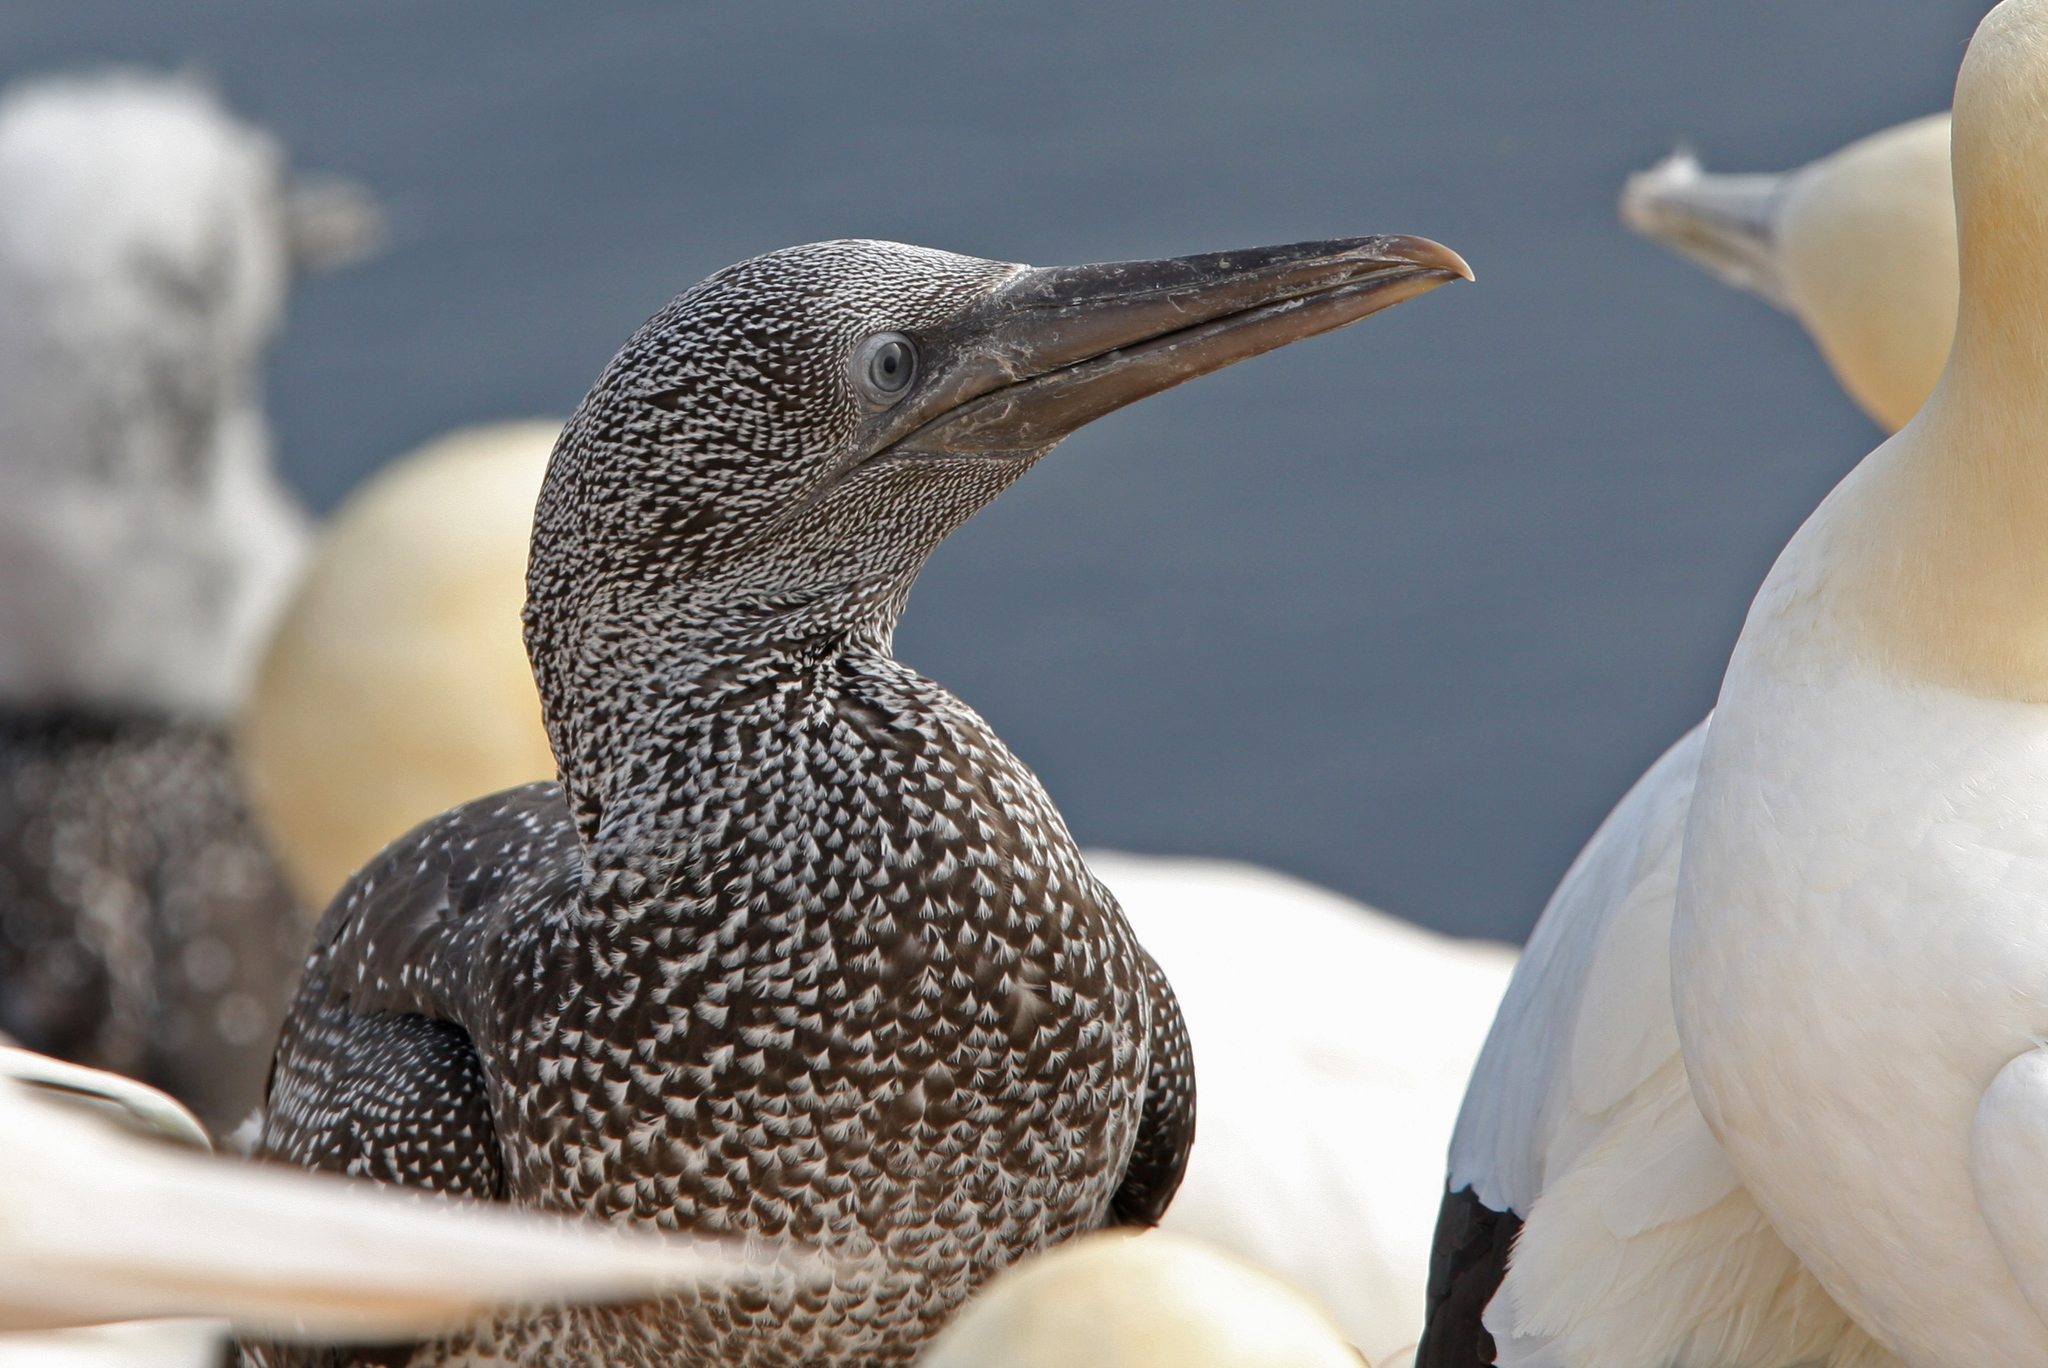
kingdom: Animalia
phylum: Chordata
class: Aves
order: Suliformes
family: Sulidae
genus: Morus
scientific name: Morus bassanus
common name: Northern gannet
